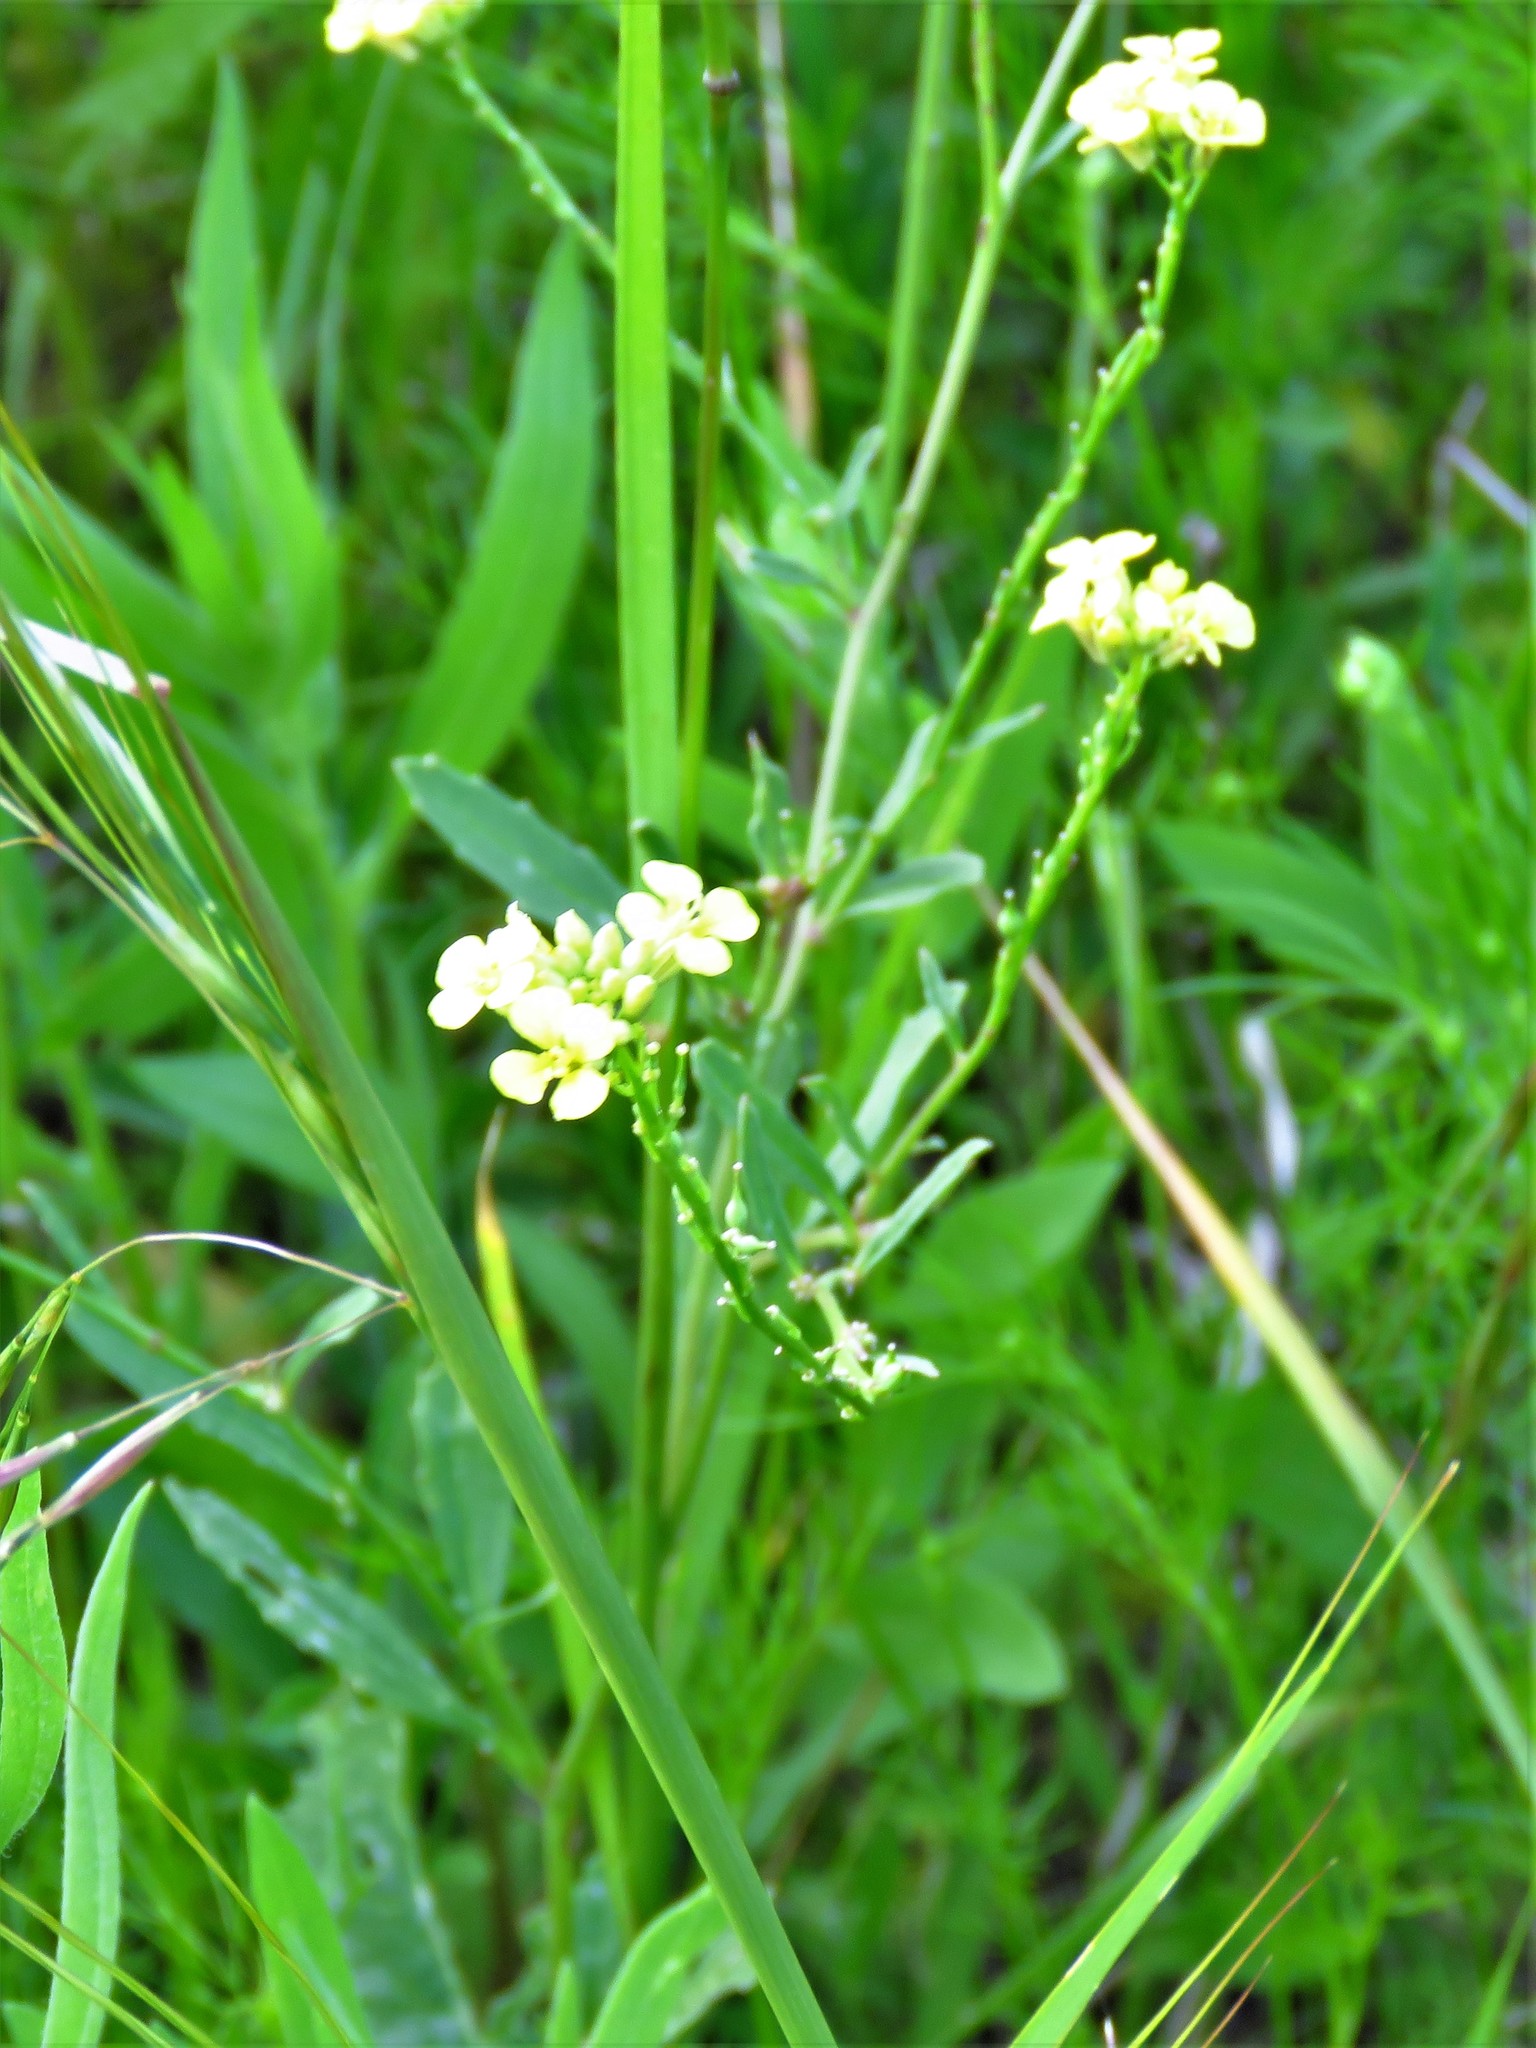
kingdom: Plantae
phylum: Tracheophyta
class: Magnoliopsida
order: Brassicales
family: Brassicaceae
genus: Rapistrum
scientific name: Rapistrum rugosum
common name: Annual bastardcabbage
